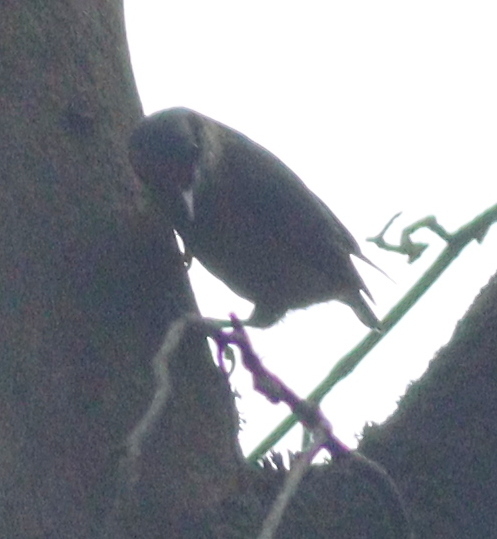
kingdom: Animalia
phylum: Chordata
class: Aves
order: Passeriformes
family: Sittidae
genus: Sitta
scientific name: Sitta europaea
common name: Eurasian nuthatch
